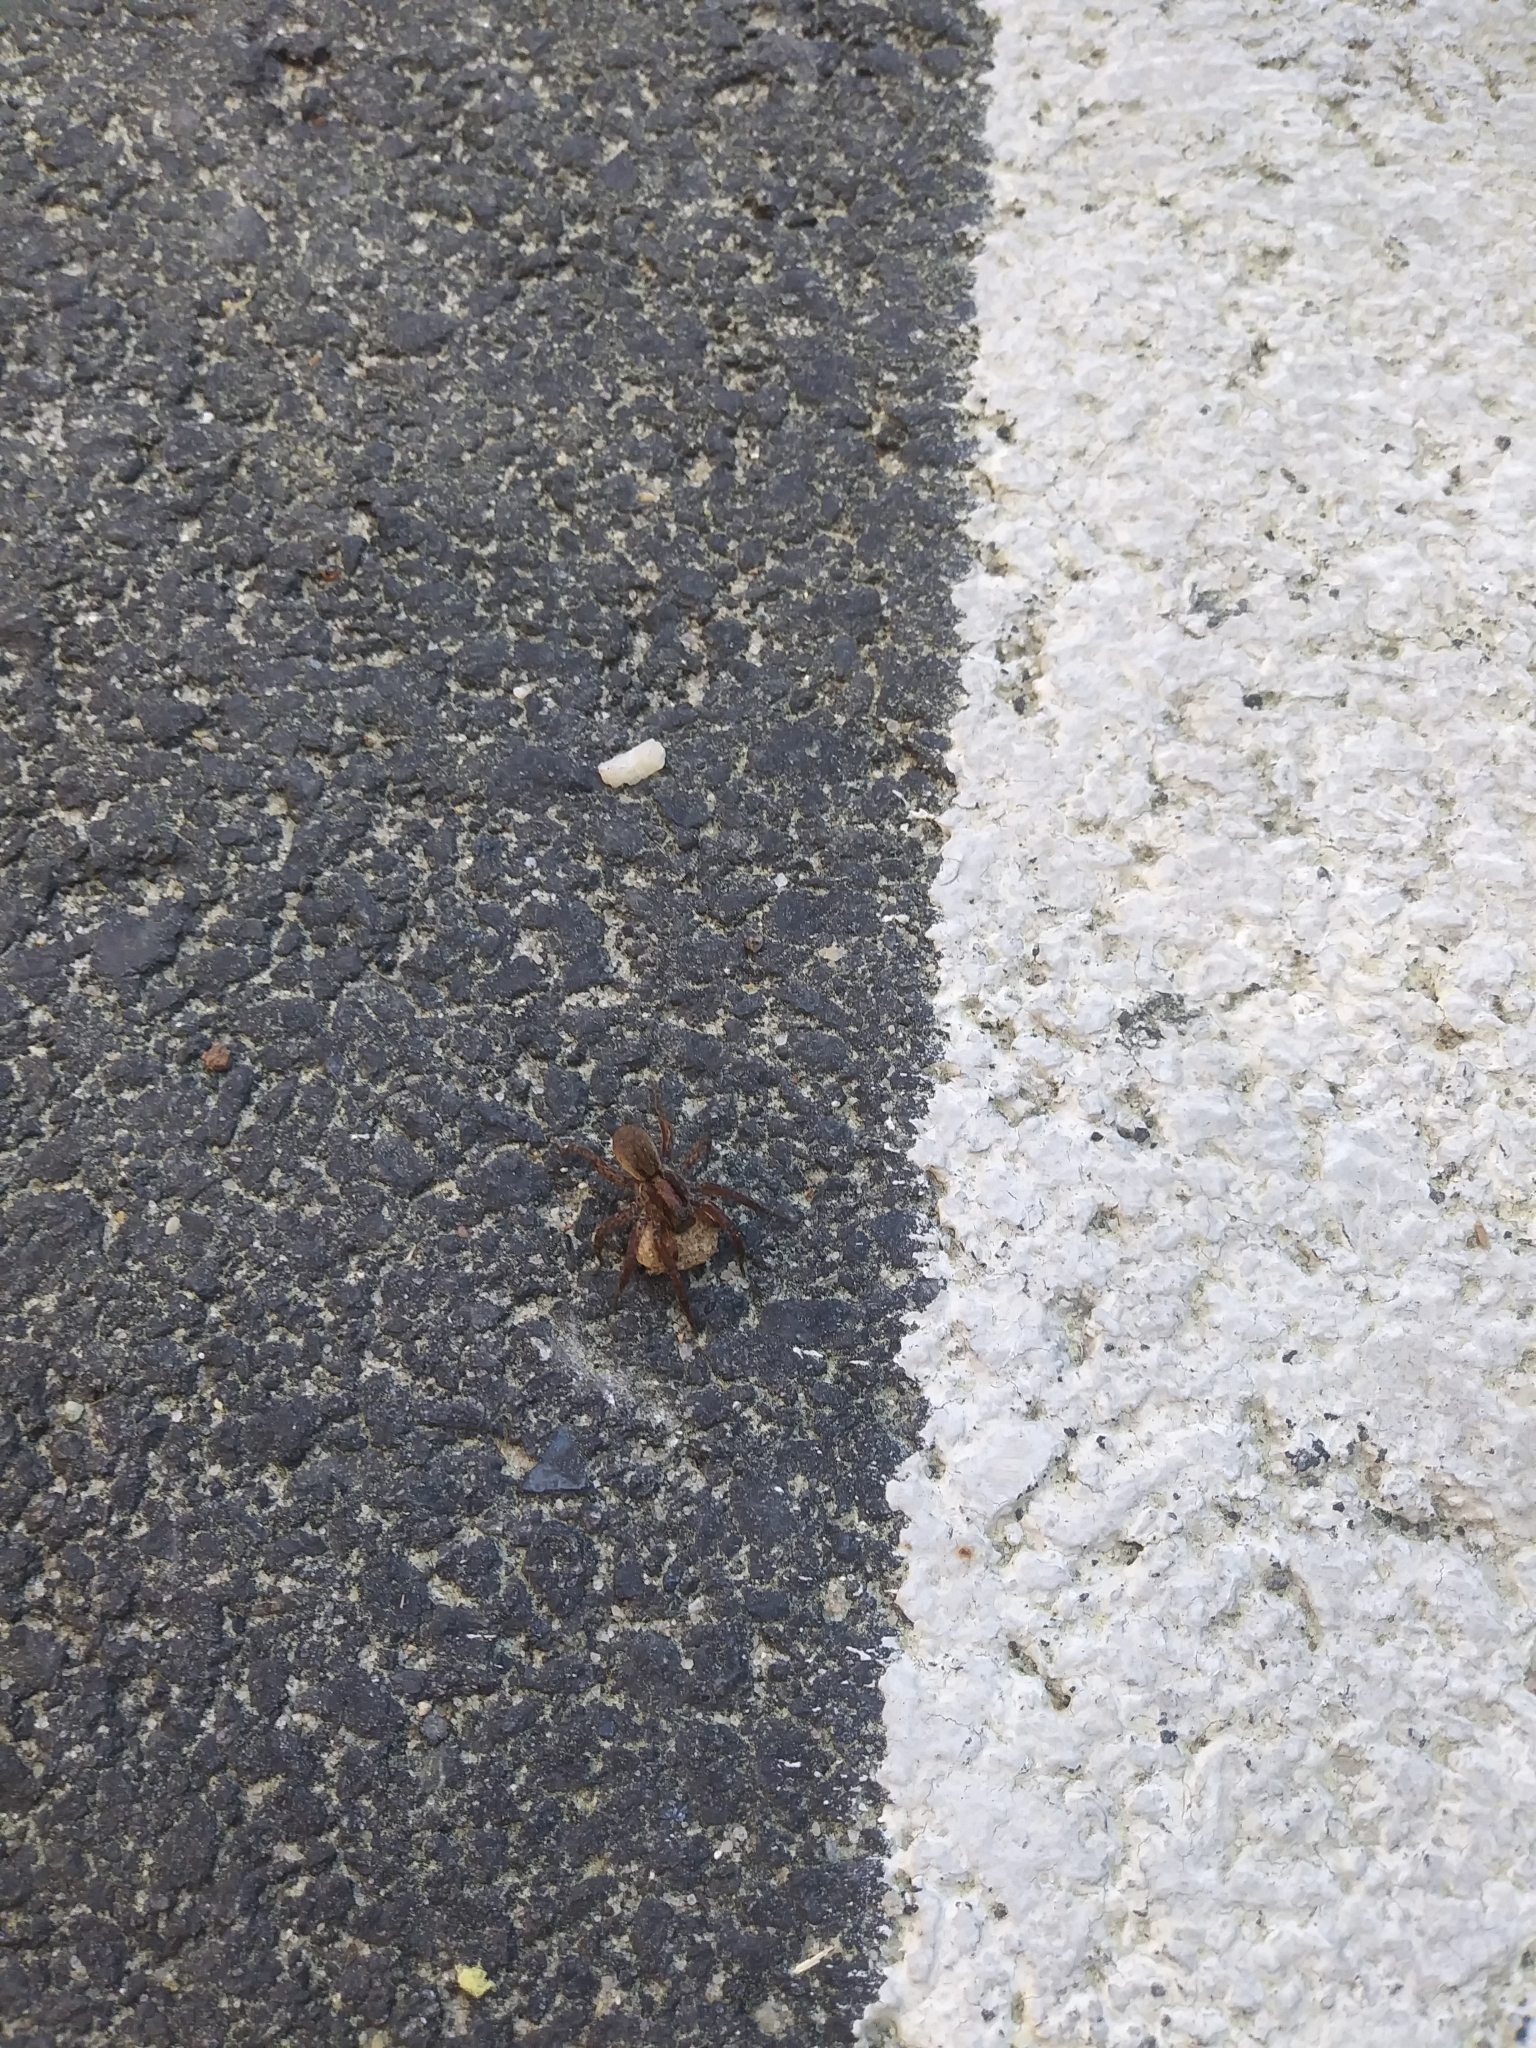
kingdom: Animalia
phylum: Arthropoda
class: Arachnida
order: Araneae
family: Lycosidae
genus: Trochosa
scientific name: Trochosa sepulchralis
